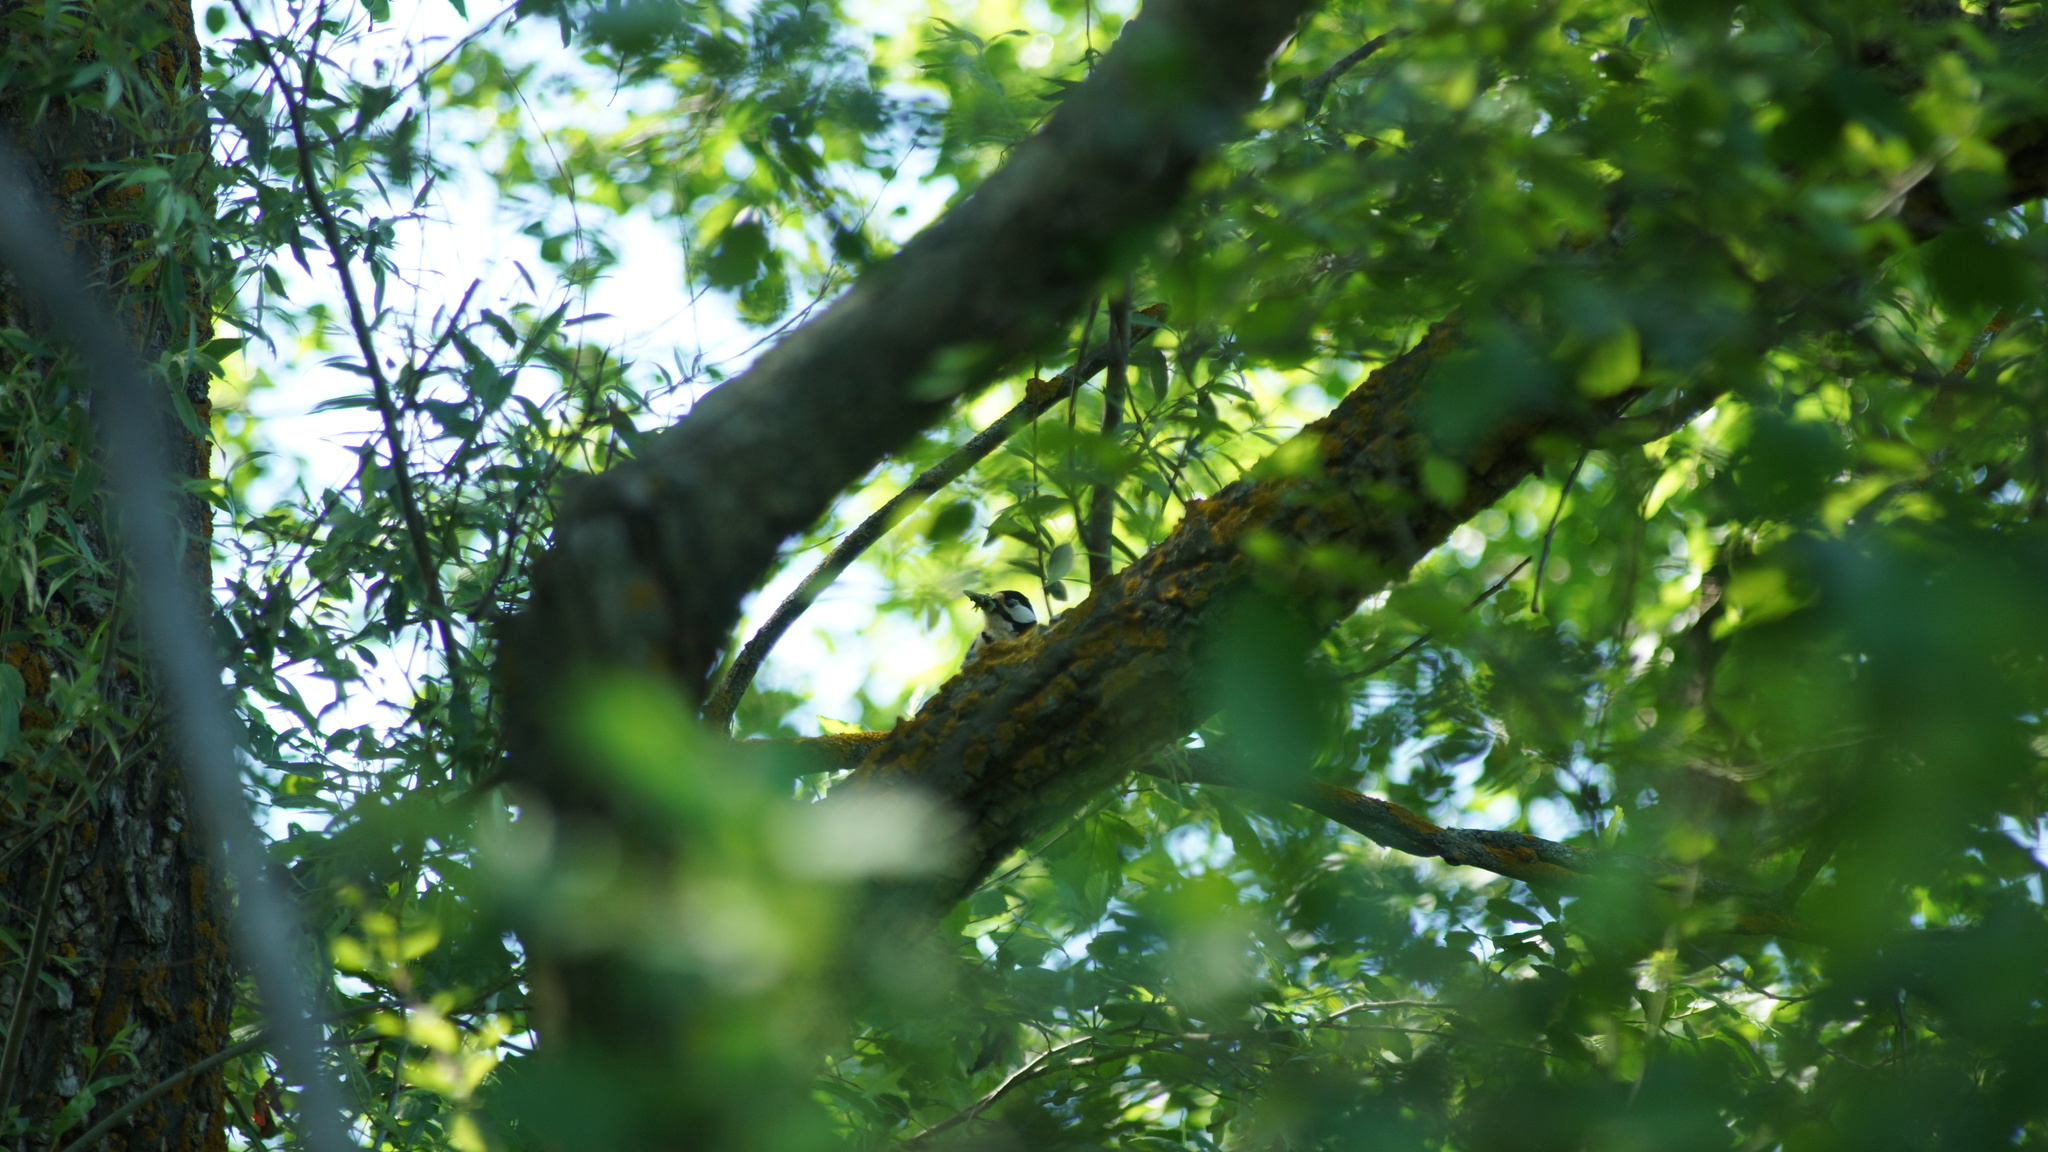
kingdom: Animalia
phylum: Chordata
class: Aves
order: Piciformes
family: Picidae
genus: Dendrocopos
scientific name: Dendrocopos major
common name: Great spotted woodpecker
